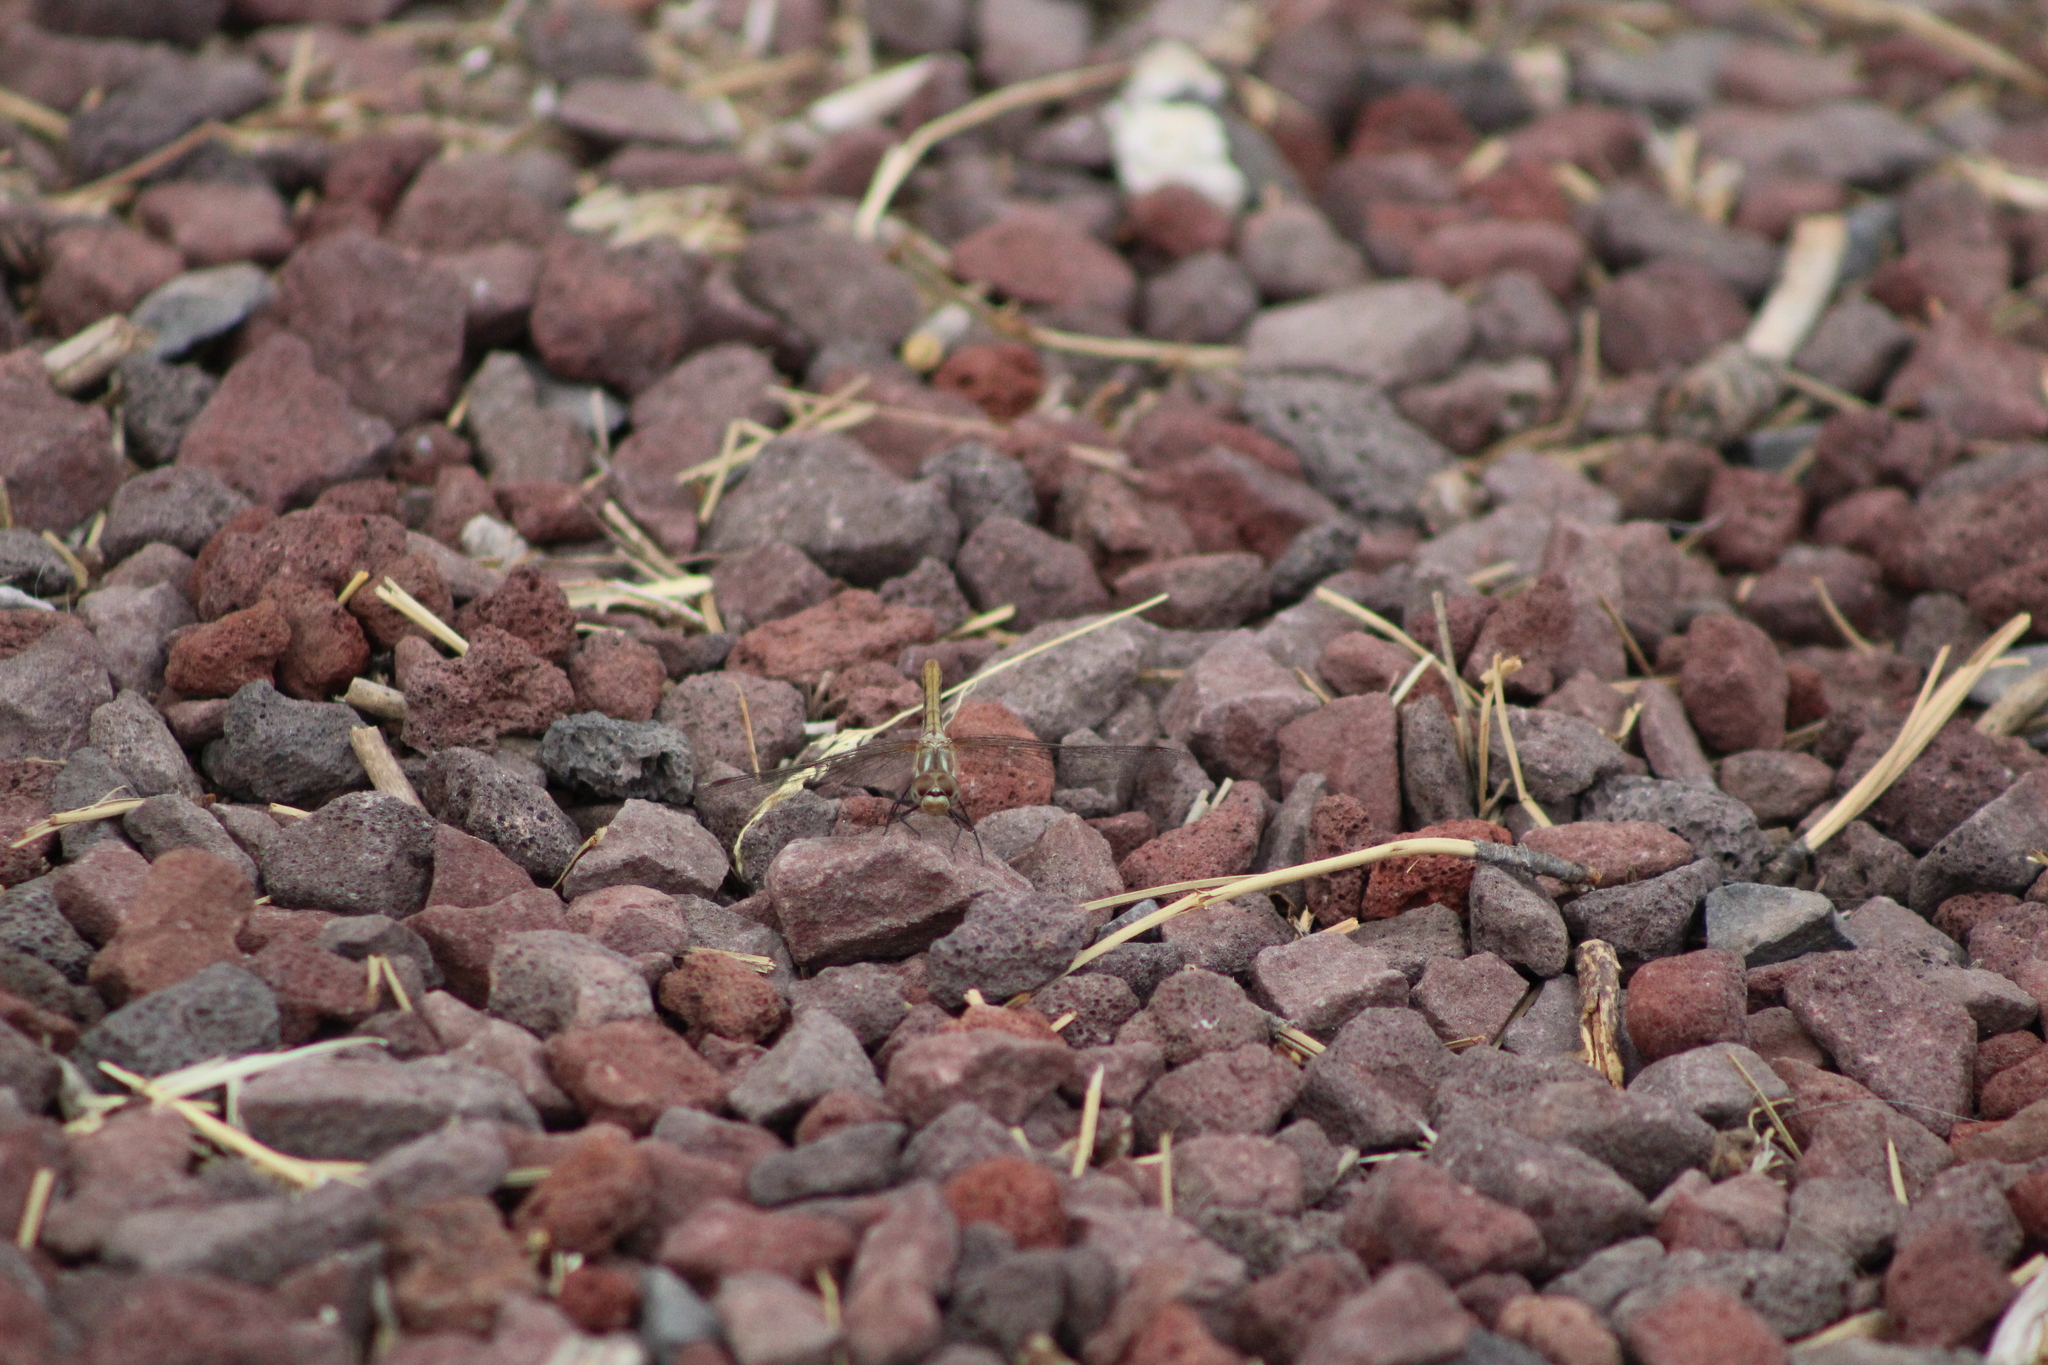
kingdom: Animalia
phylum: Arthropoda
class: Insecta
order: Odonata
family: Libellulidae
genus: Sympetrum
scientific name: Sympetrum pallipes
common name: Striped meadowhawk
